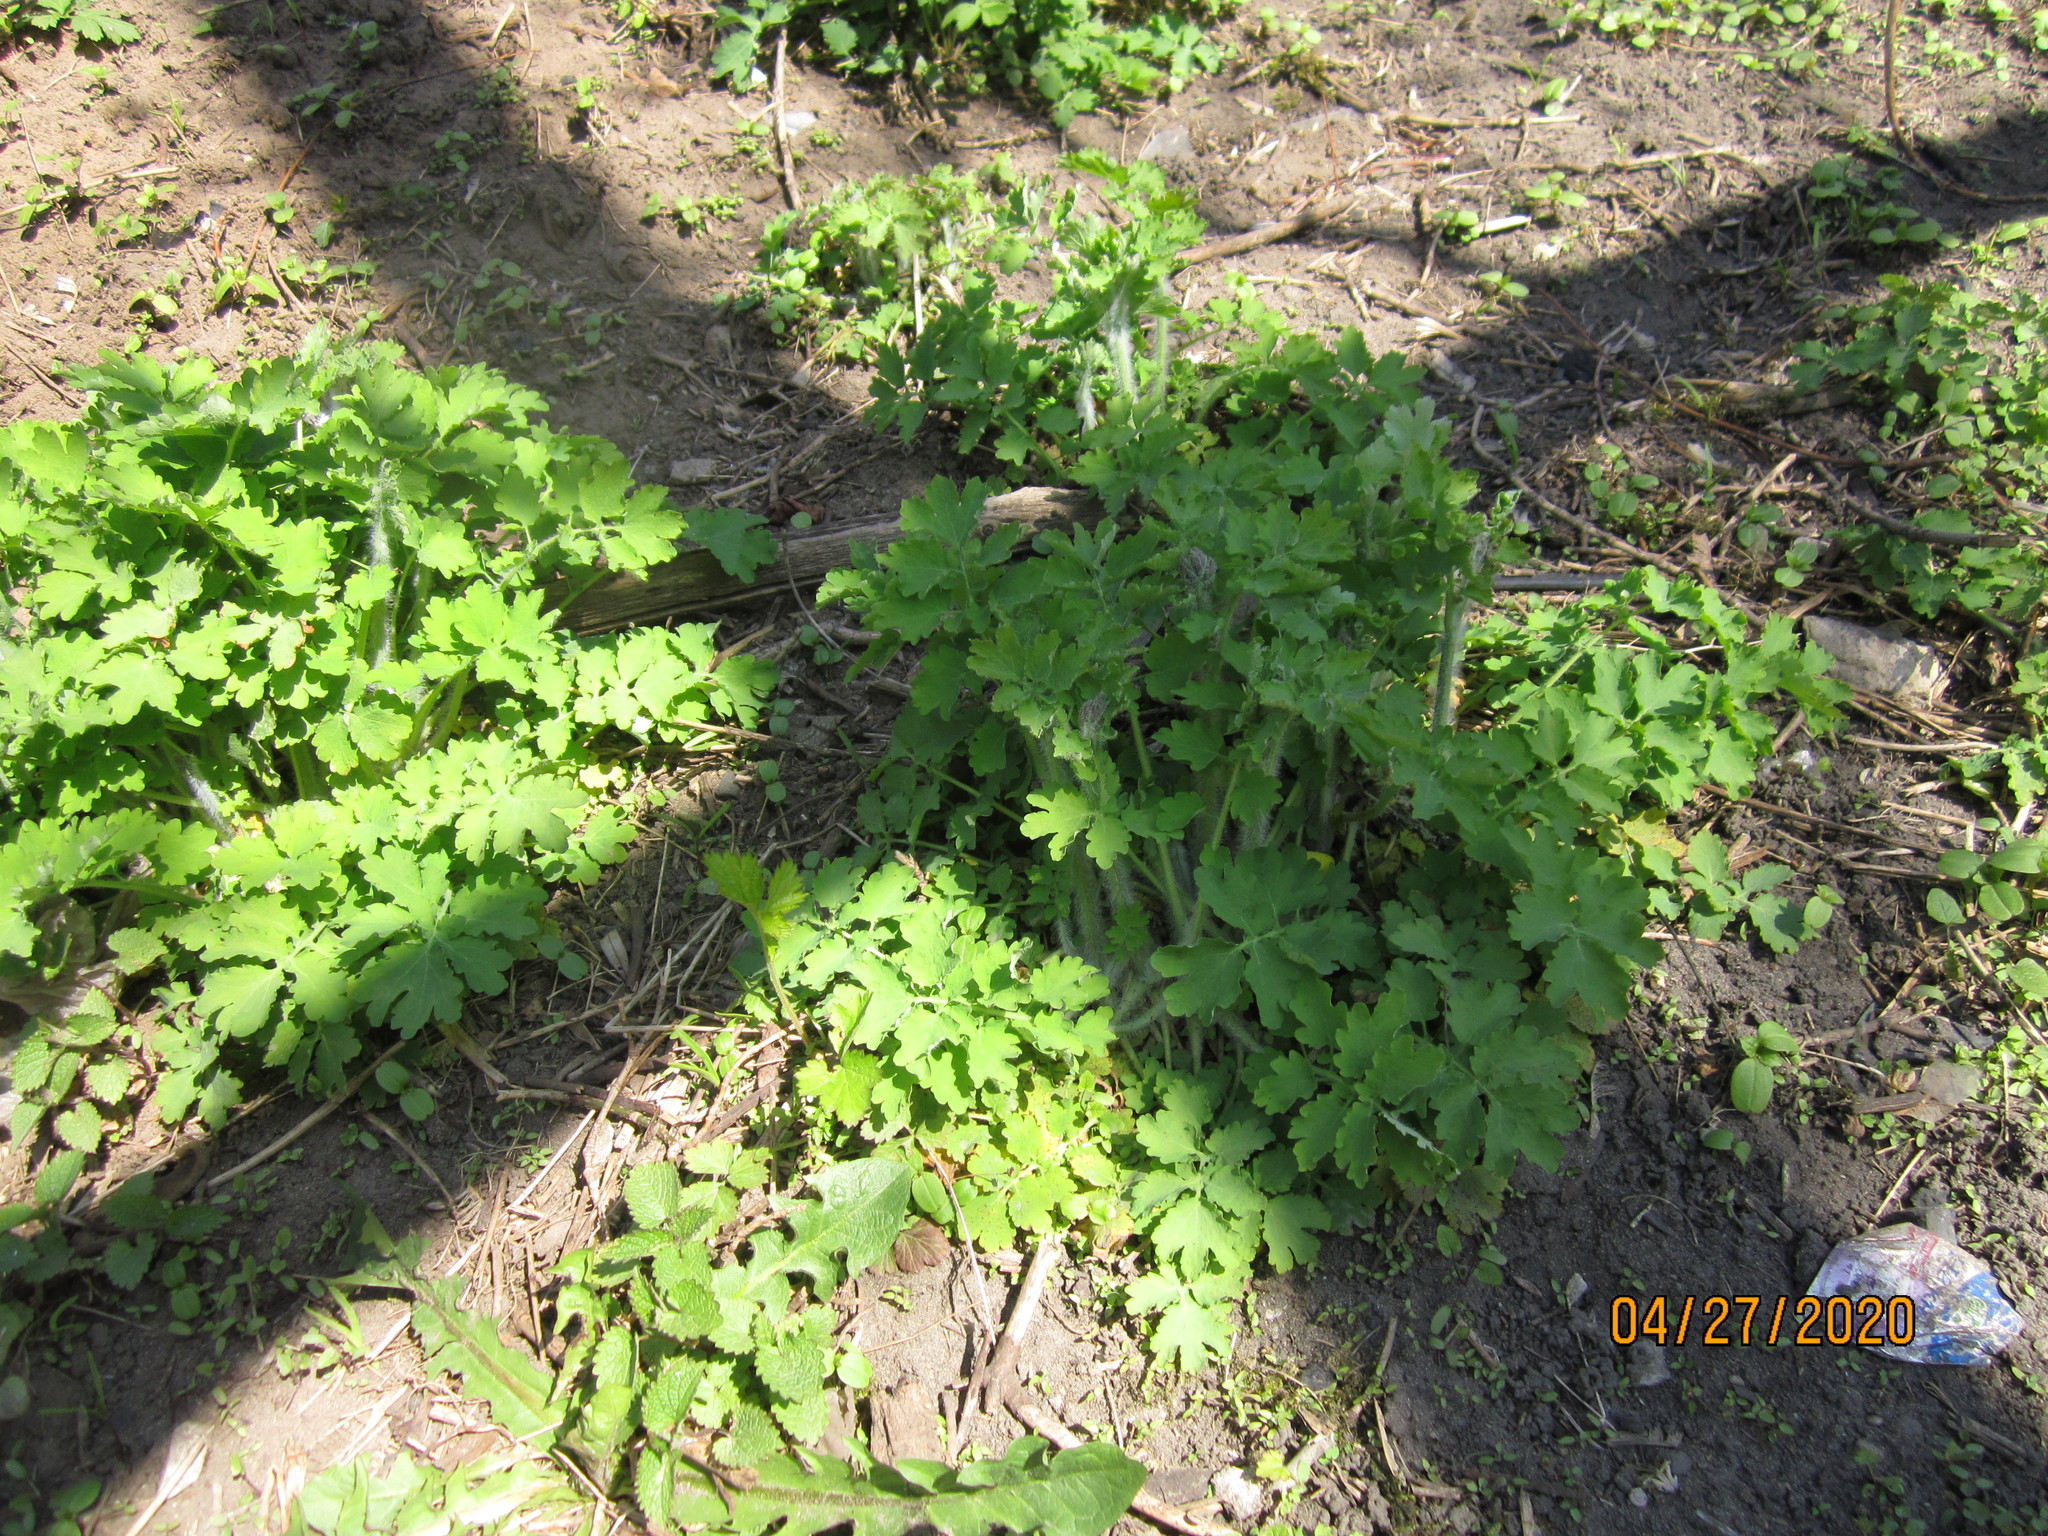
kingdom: Plantae
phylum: Tracheophyta
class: Magnoliopsida
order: Ranunculales
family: Papaveraceae
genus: Chelidonium
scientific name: Chelidonium majus
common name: Greater celandine
